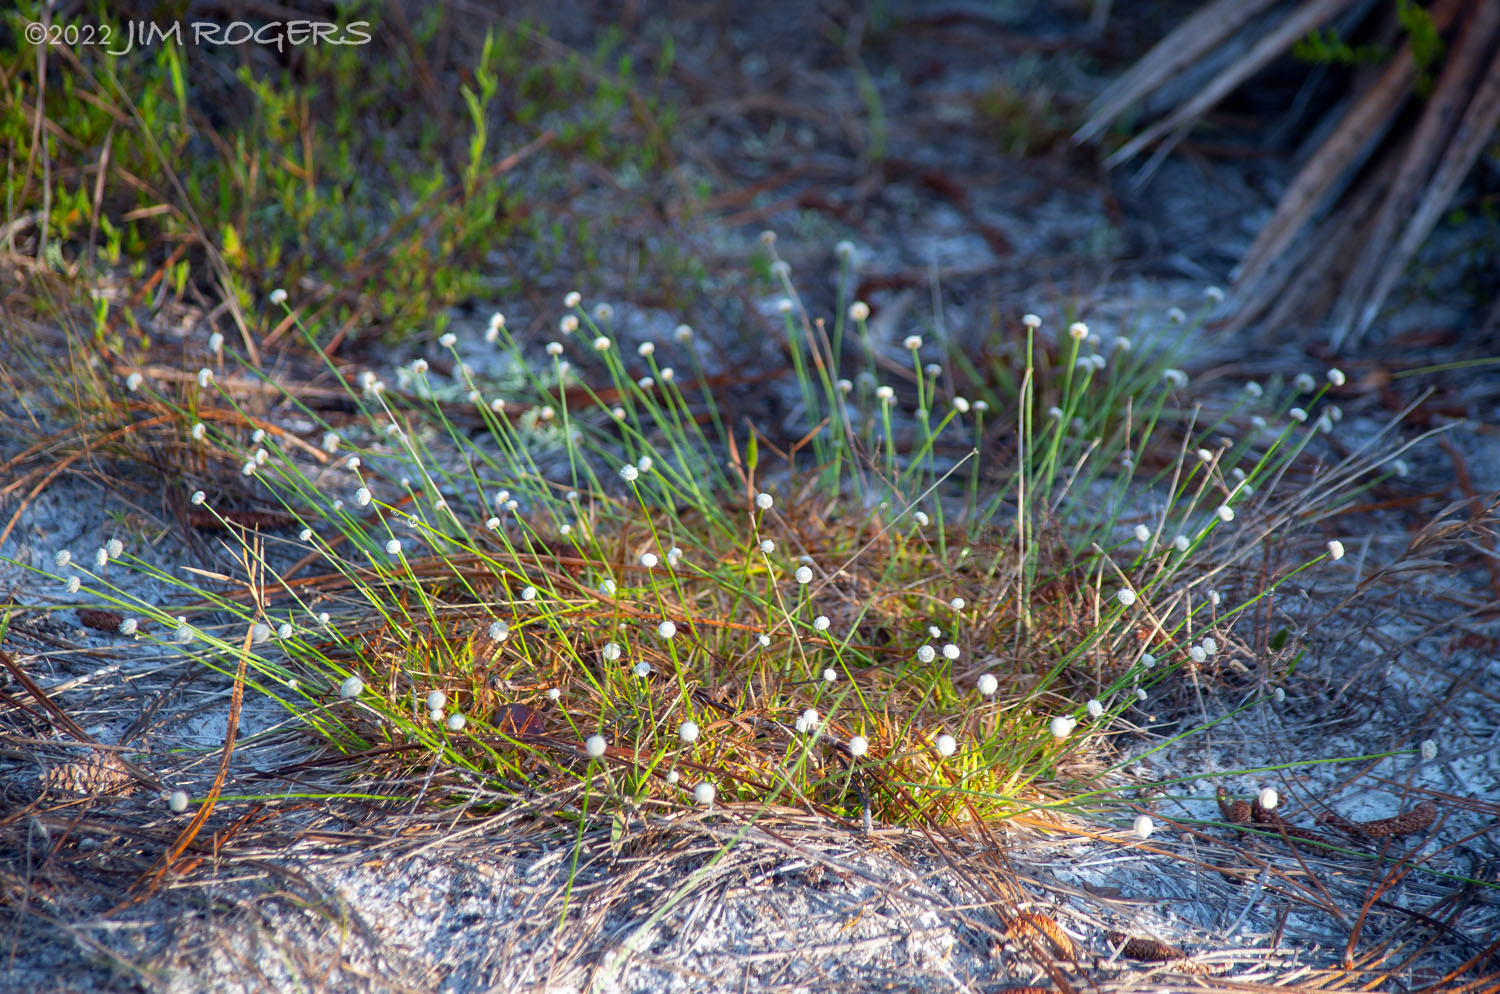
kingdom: Plantae
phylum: Tracheophyta
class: Liliopsida
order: Poales
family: Eriocaulaceae
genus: Paepalanthus
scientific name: Paepalanthus beyrichianus
